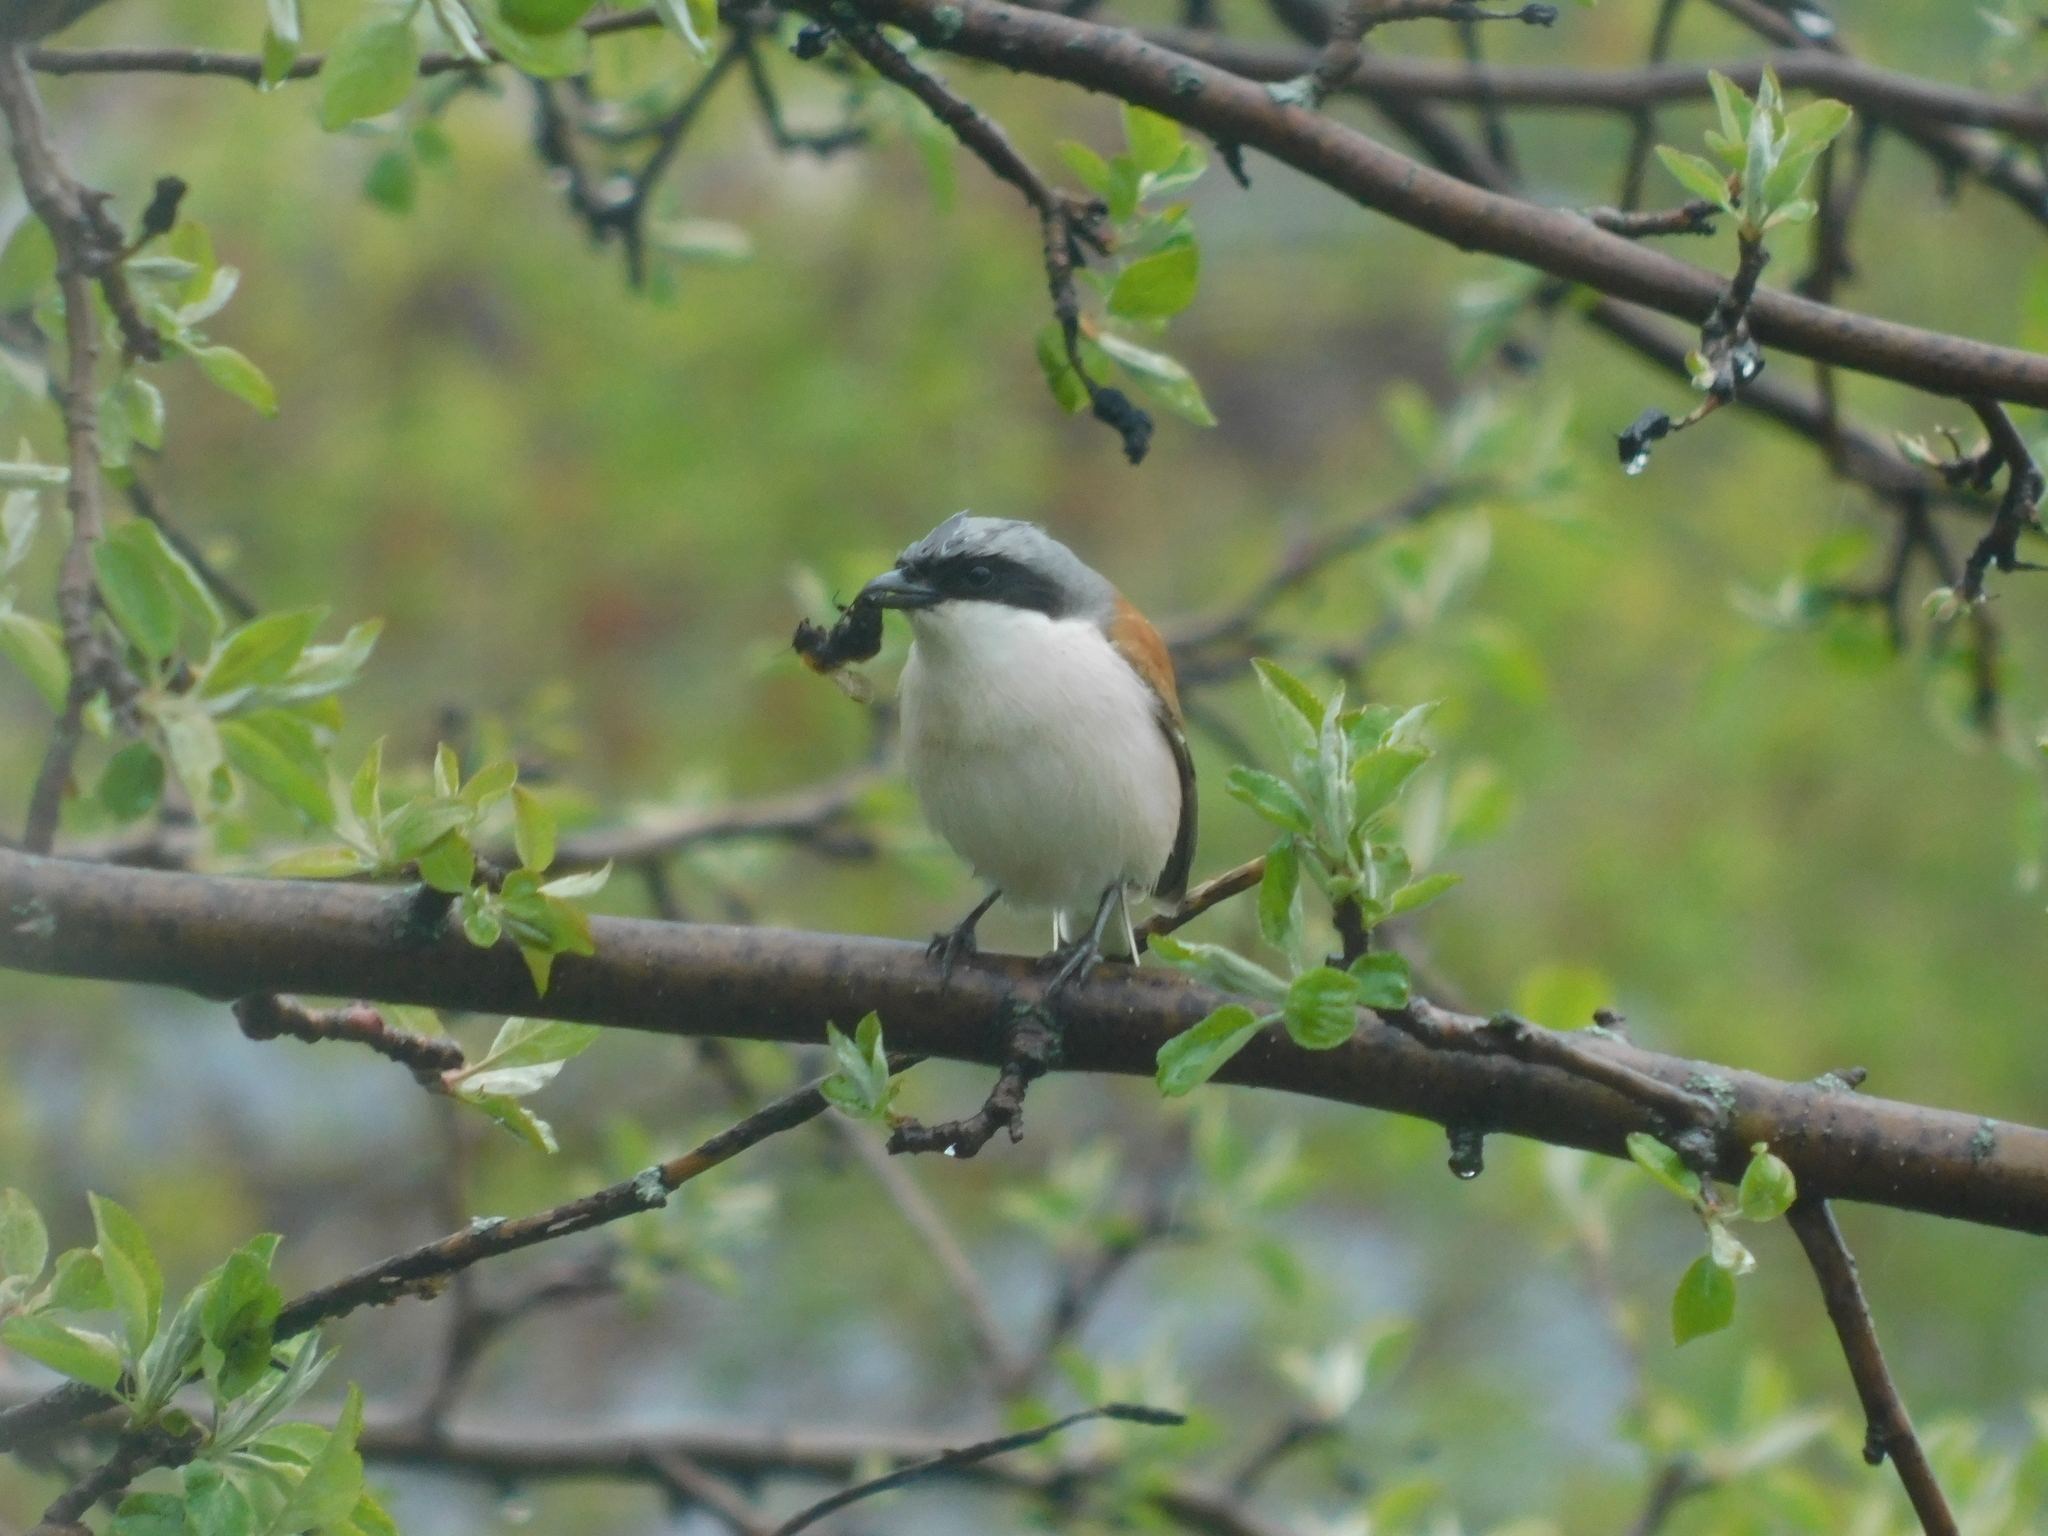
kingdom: Animalia
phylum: Chordata
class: Aves
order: Passeriformes
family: Laniidae
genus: Lanius
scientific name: Lanius collurio
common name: Red-backed shrike
